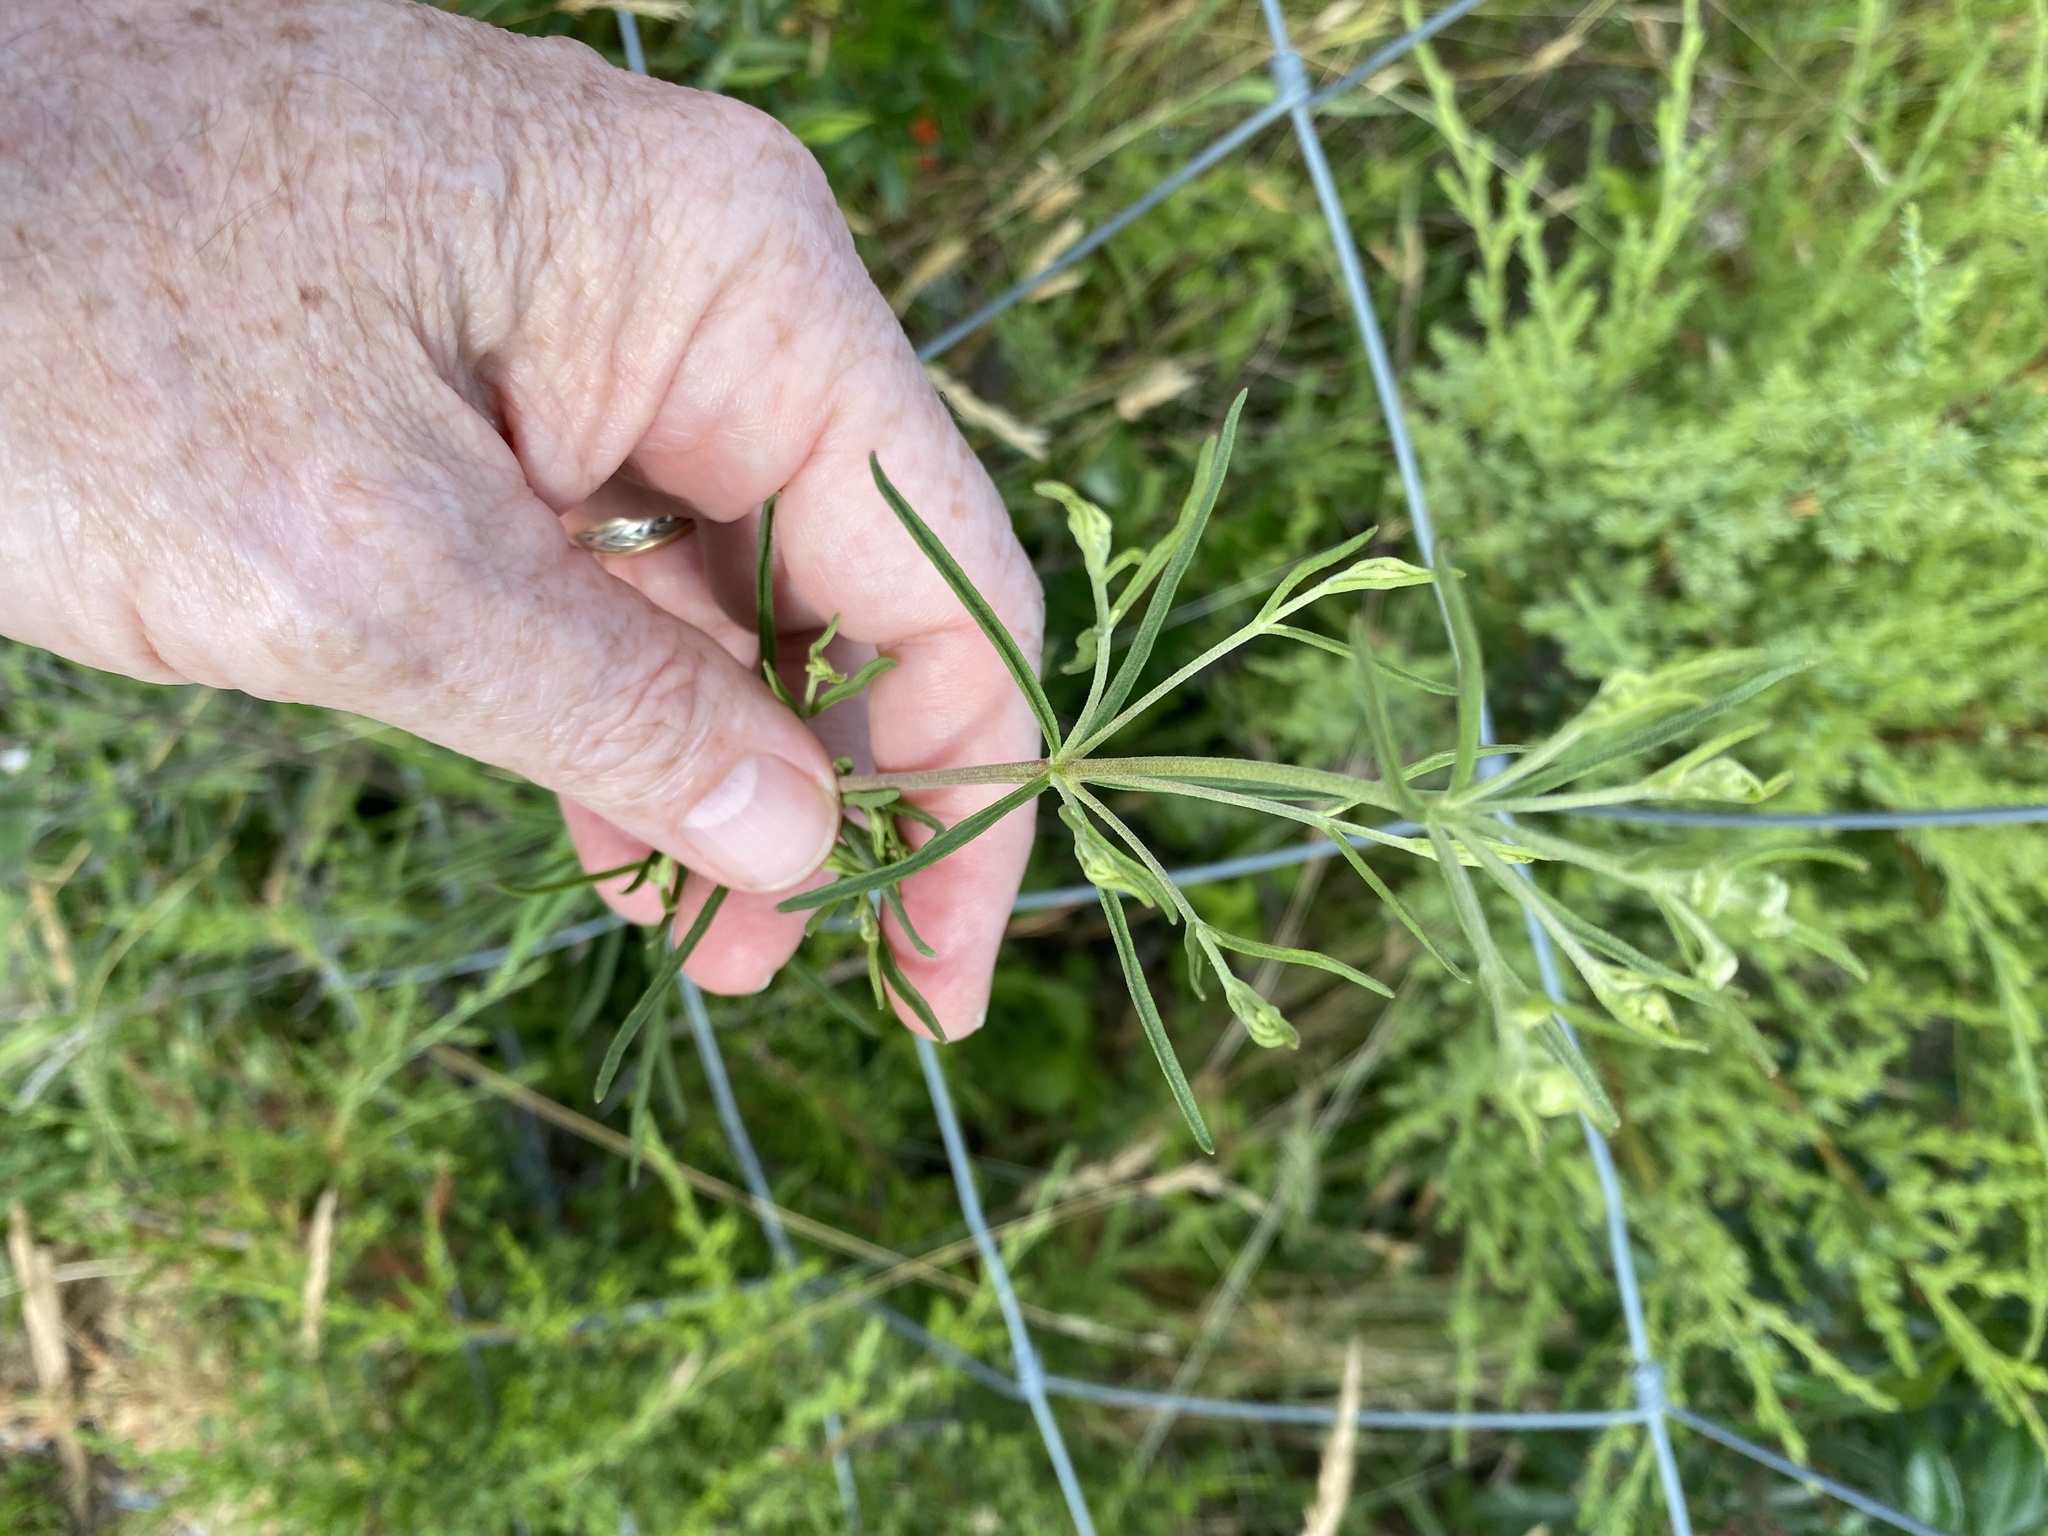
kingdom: Plantae
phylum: Tracheophyta
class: Magnoliopsida
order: Asterales
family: Asteraceae
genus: Eupatorium
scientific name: Eupatorium hyssopifolium
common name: Hyssop-leaf thoroughwort
